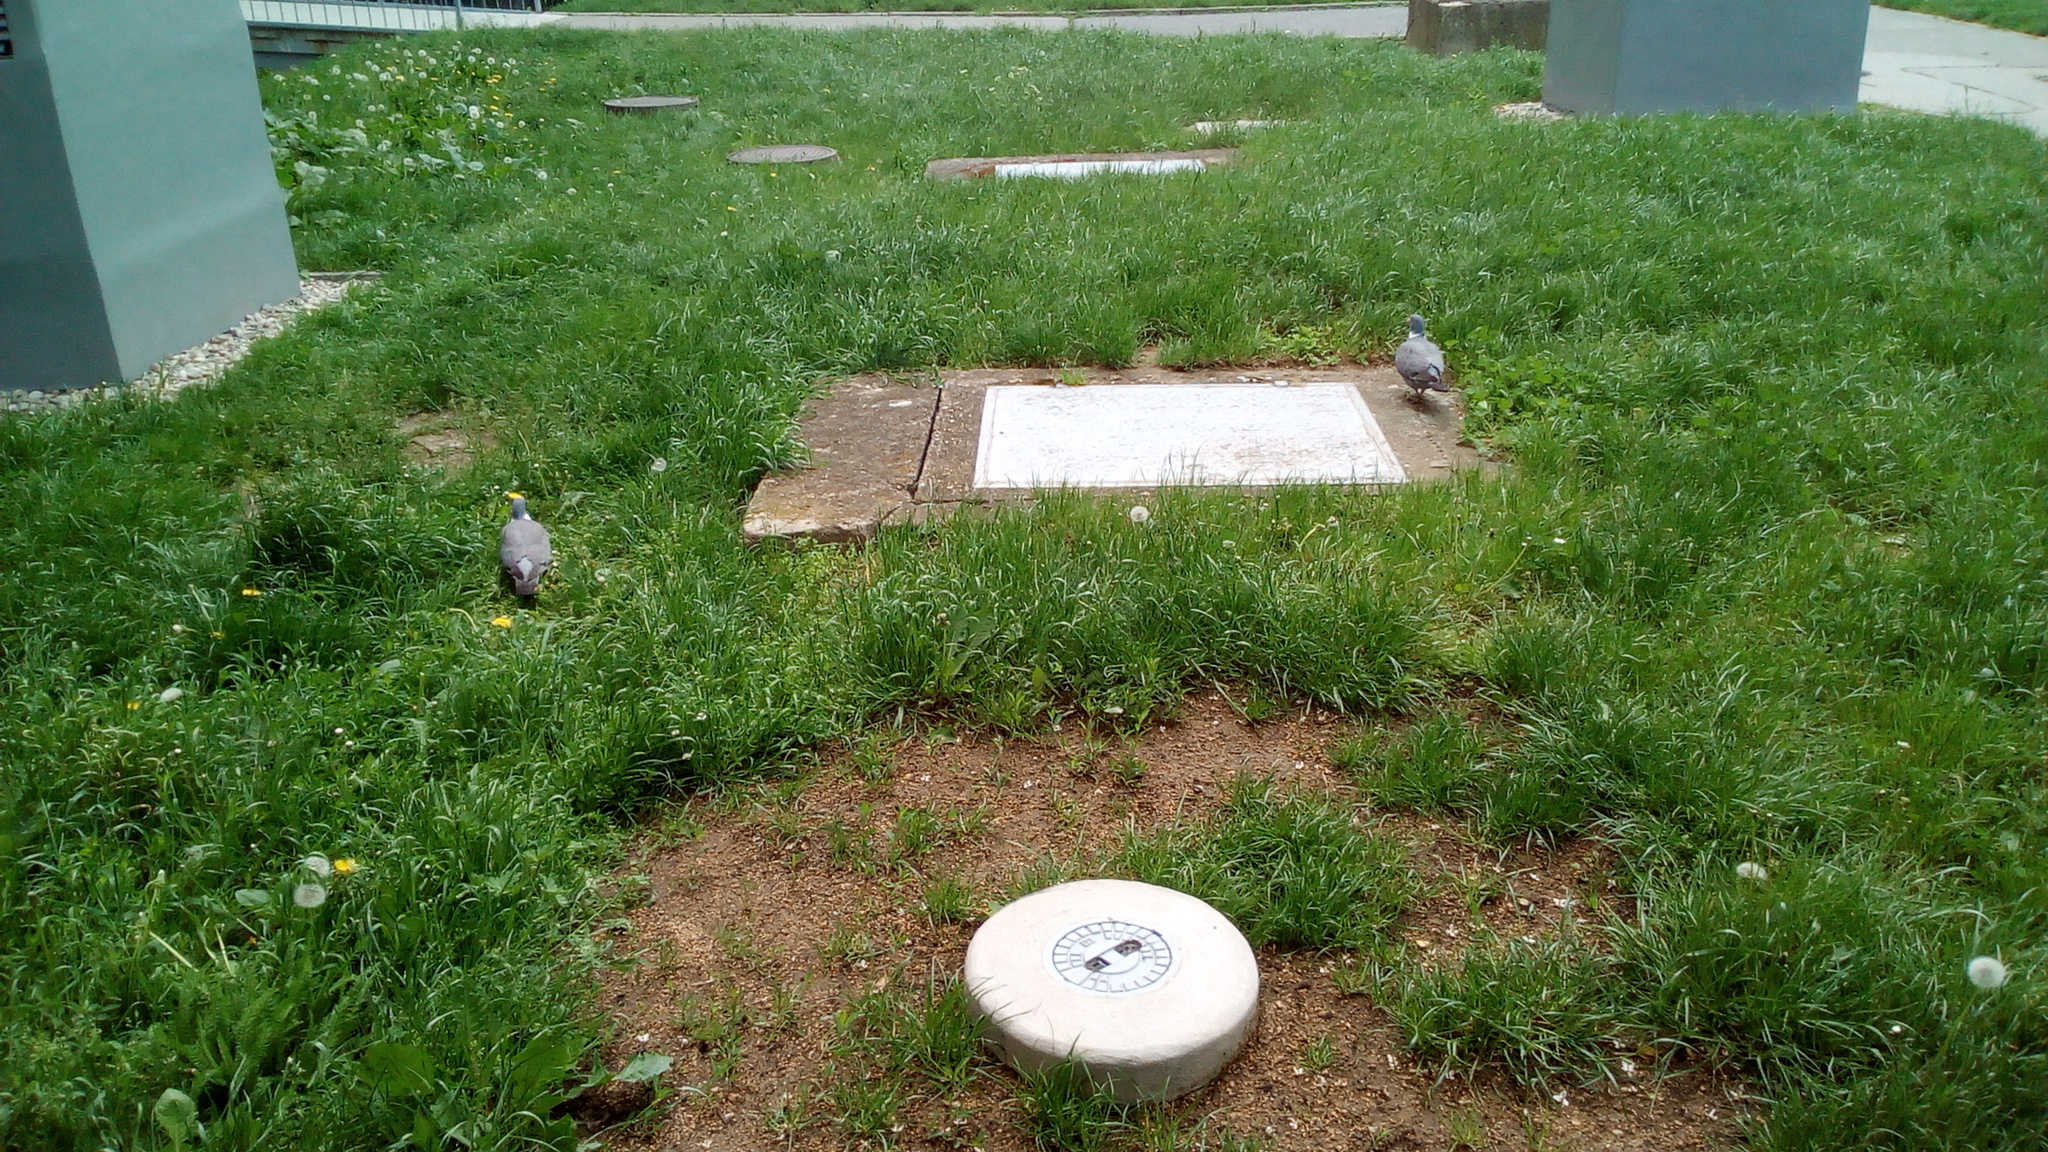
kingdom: Animalia
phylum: Chordata
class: Aves
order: Columbiformes
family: Columbidae
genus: Columba
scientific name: Columba palumbus
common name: Common wood pigeon
